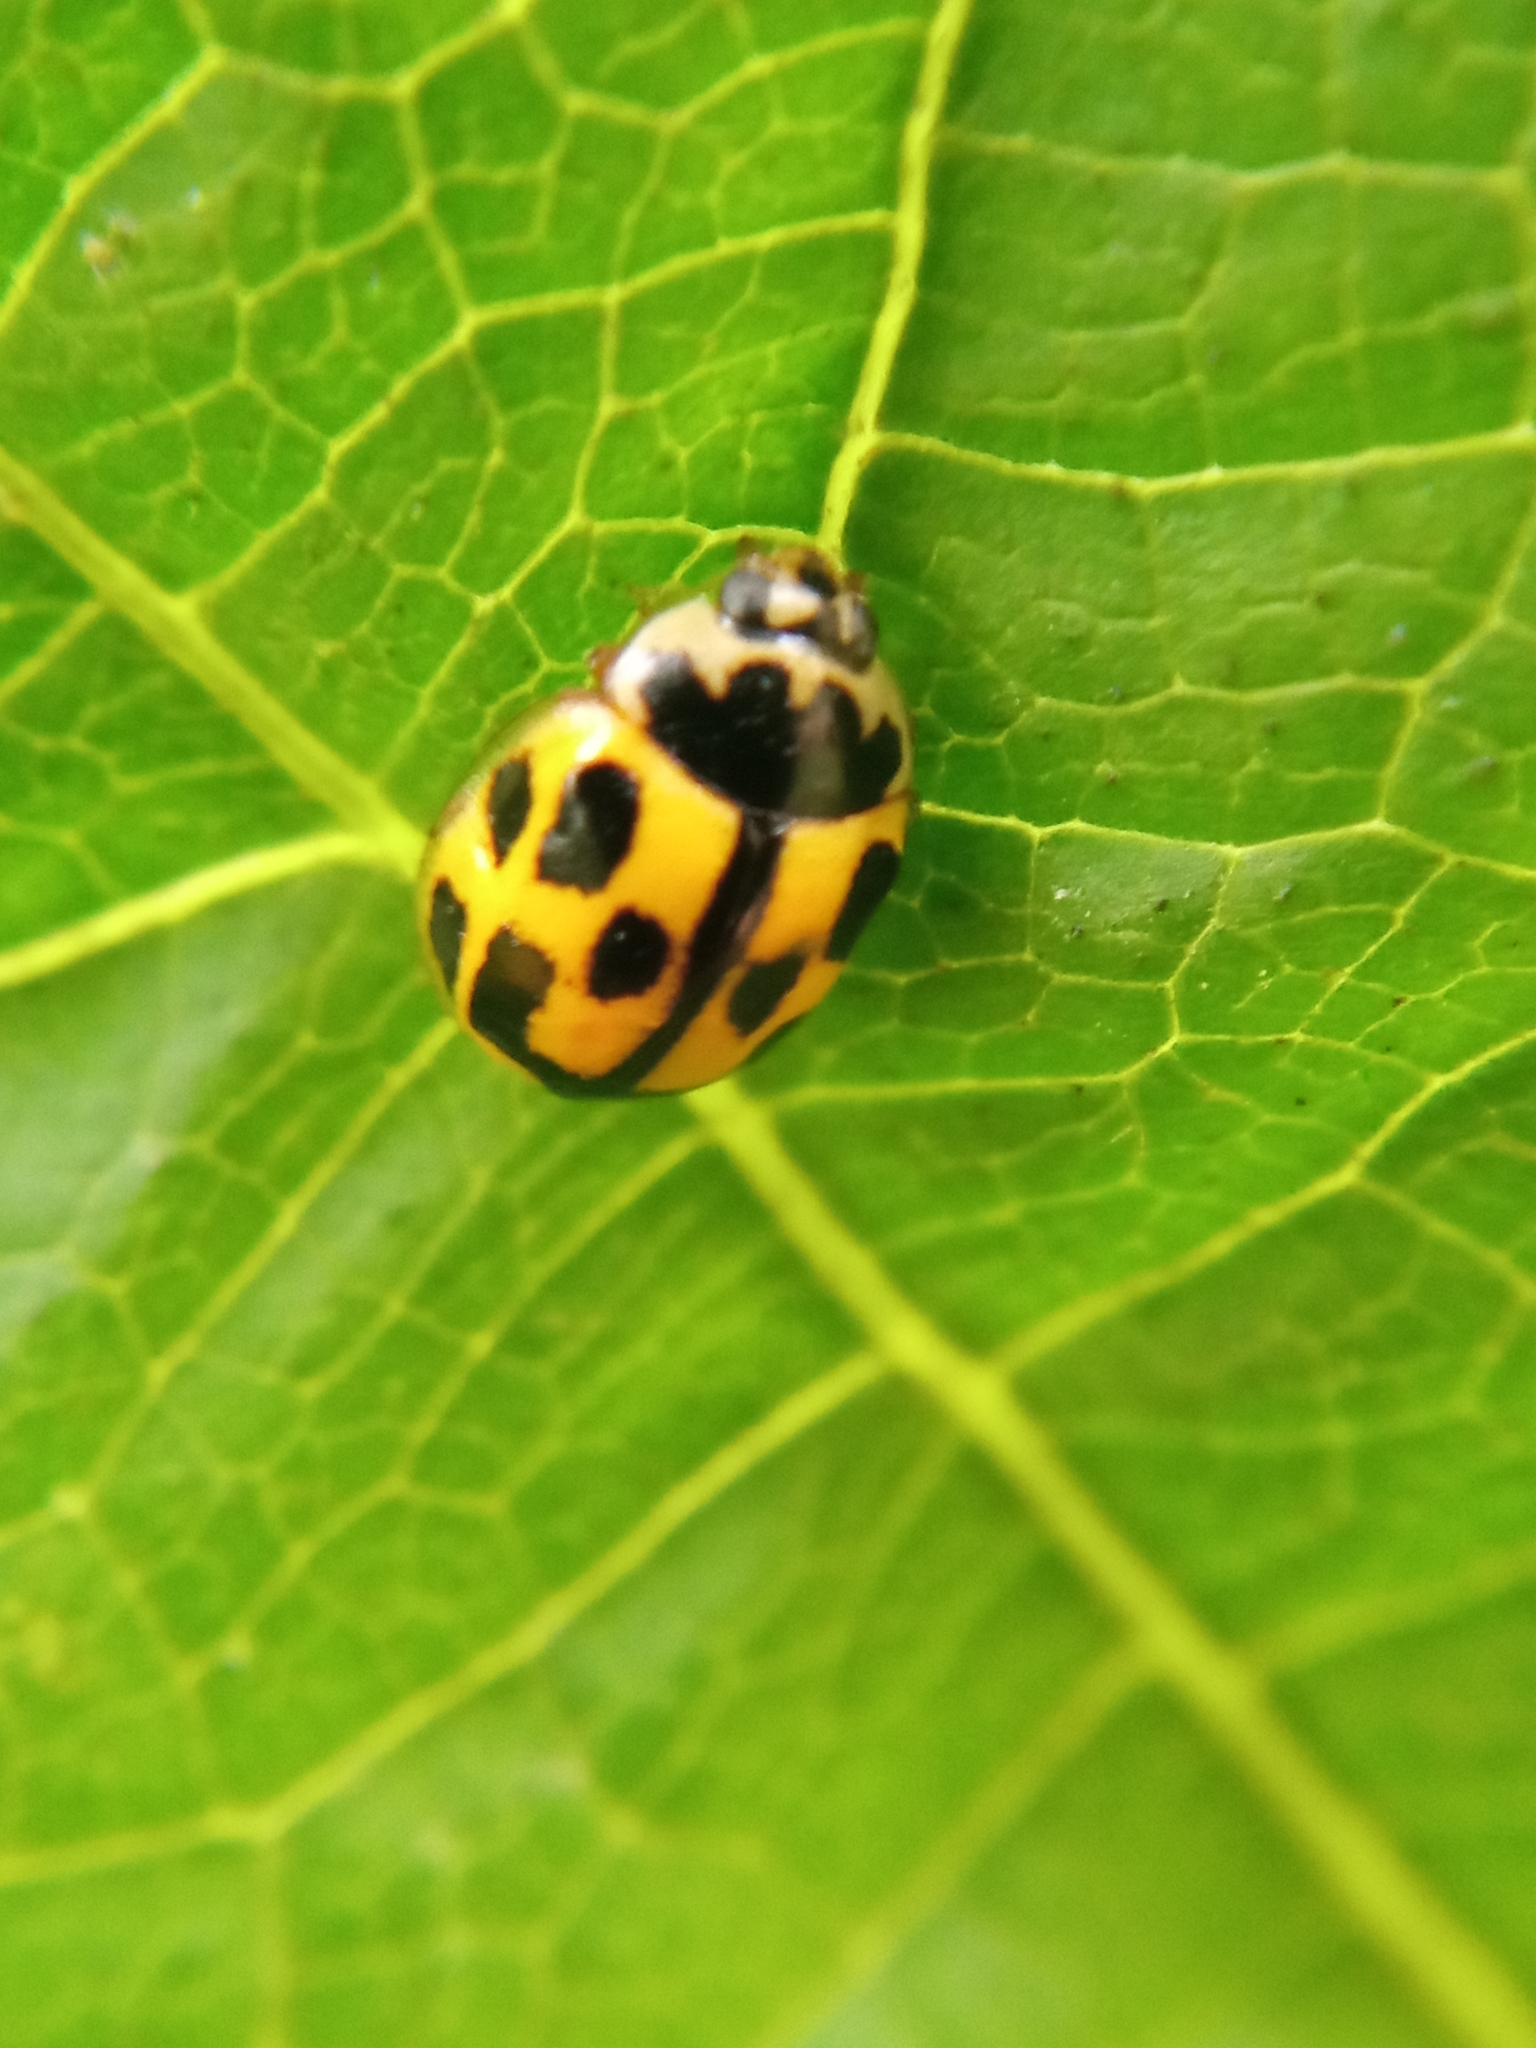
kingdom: Animalia
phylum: Arthropoda
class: Insecta
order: Coleoptera
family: Coccinellidae
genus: Propylaea
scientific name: Propylaea quatuordecimpunctata
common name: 14-spotted ladybird beetle
